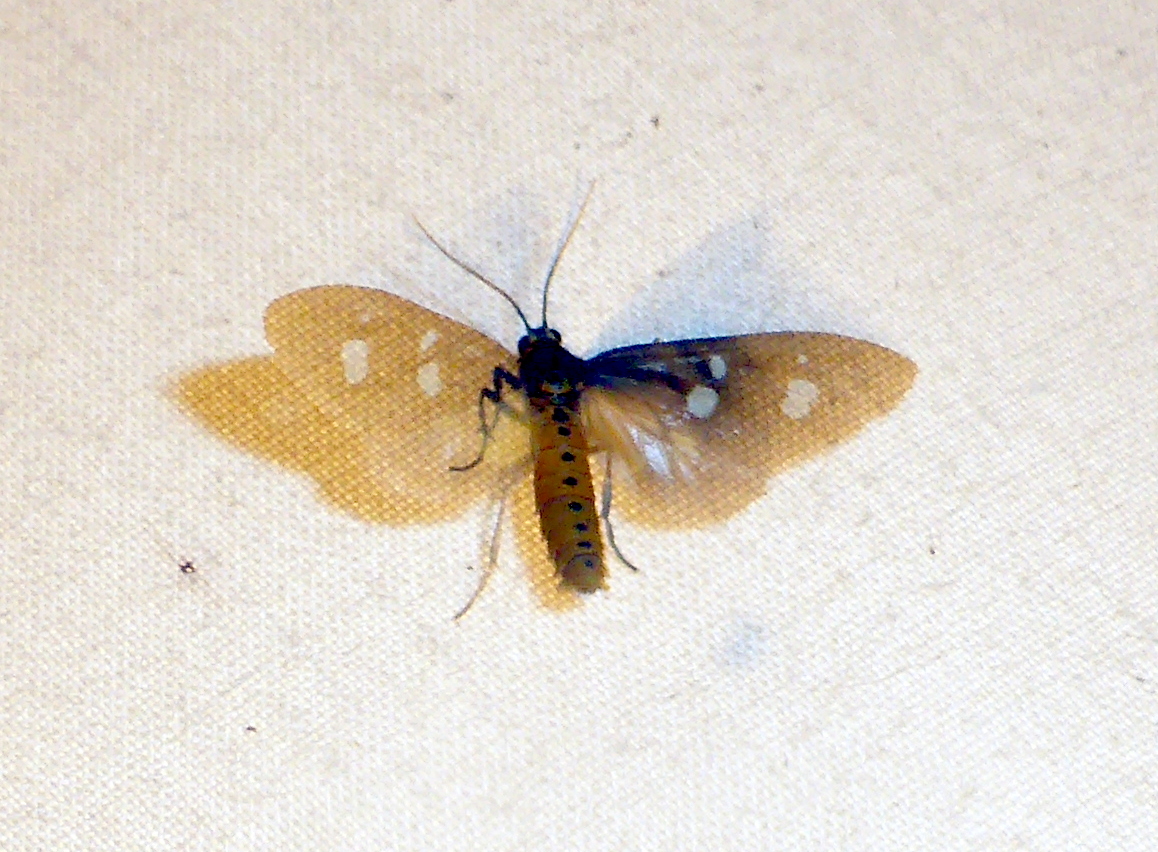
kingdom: Animalia
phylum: Arthropoda
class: Insecta
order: Lepidoptera
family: Erebidae
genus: Dysauxes
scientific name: Dysauxes punctata
